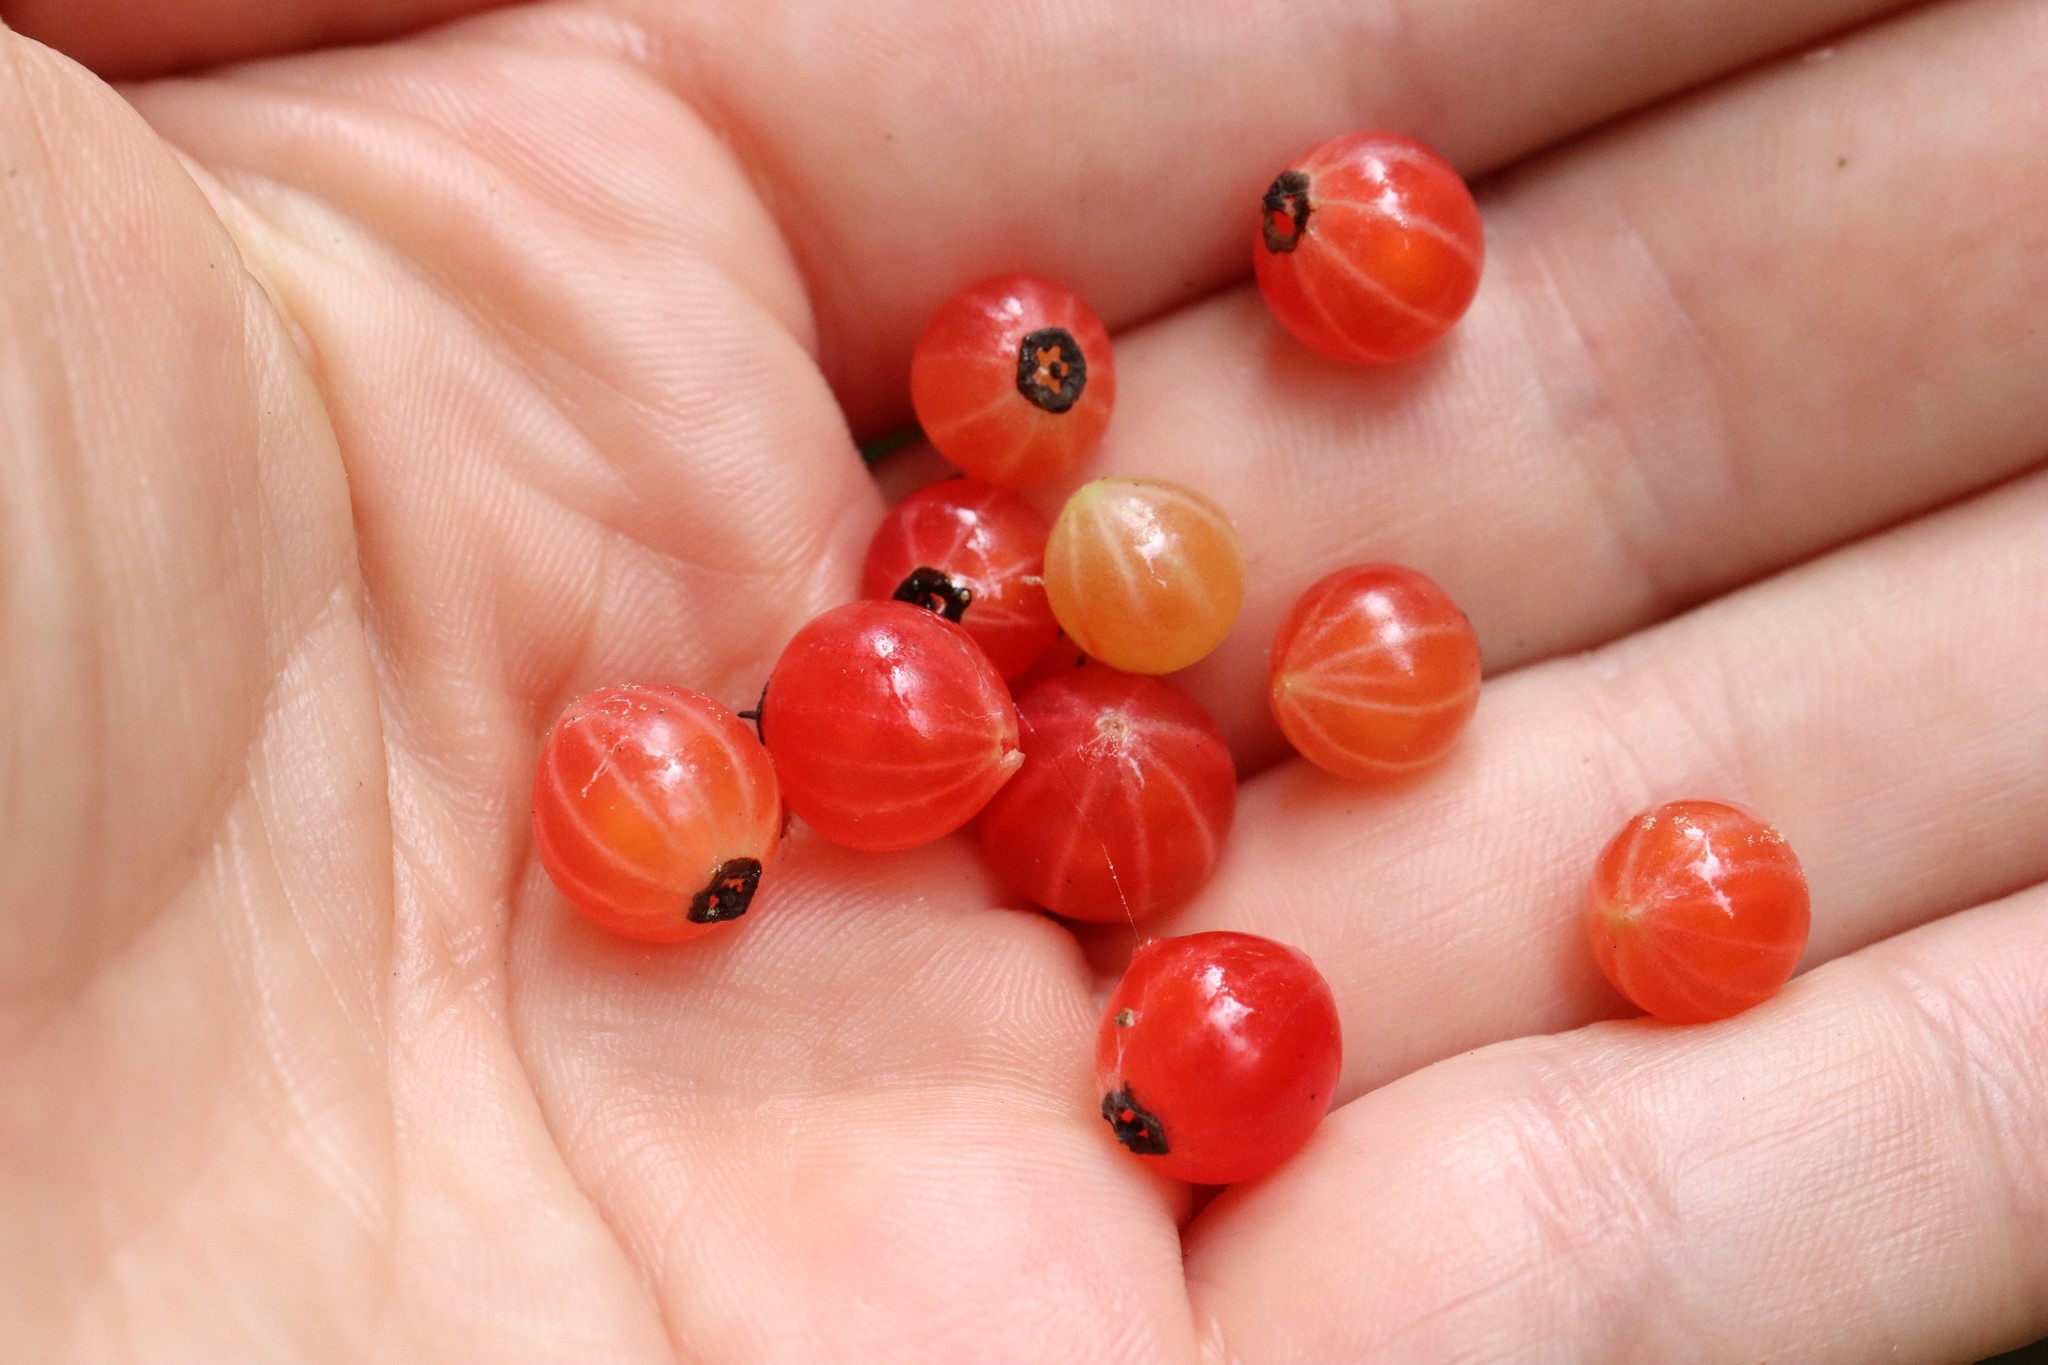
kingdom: Plantae
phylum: Tracheophyta
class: Magnoliopsida
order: Saxifragales
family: Grossulariaceae
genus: Ribes
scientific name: Ribes mandshuricum
